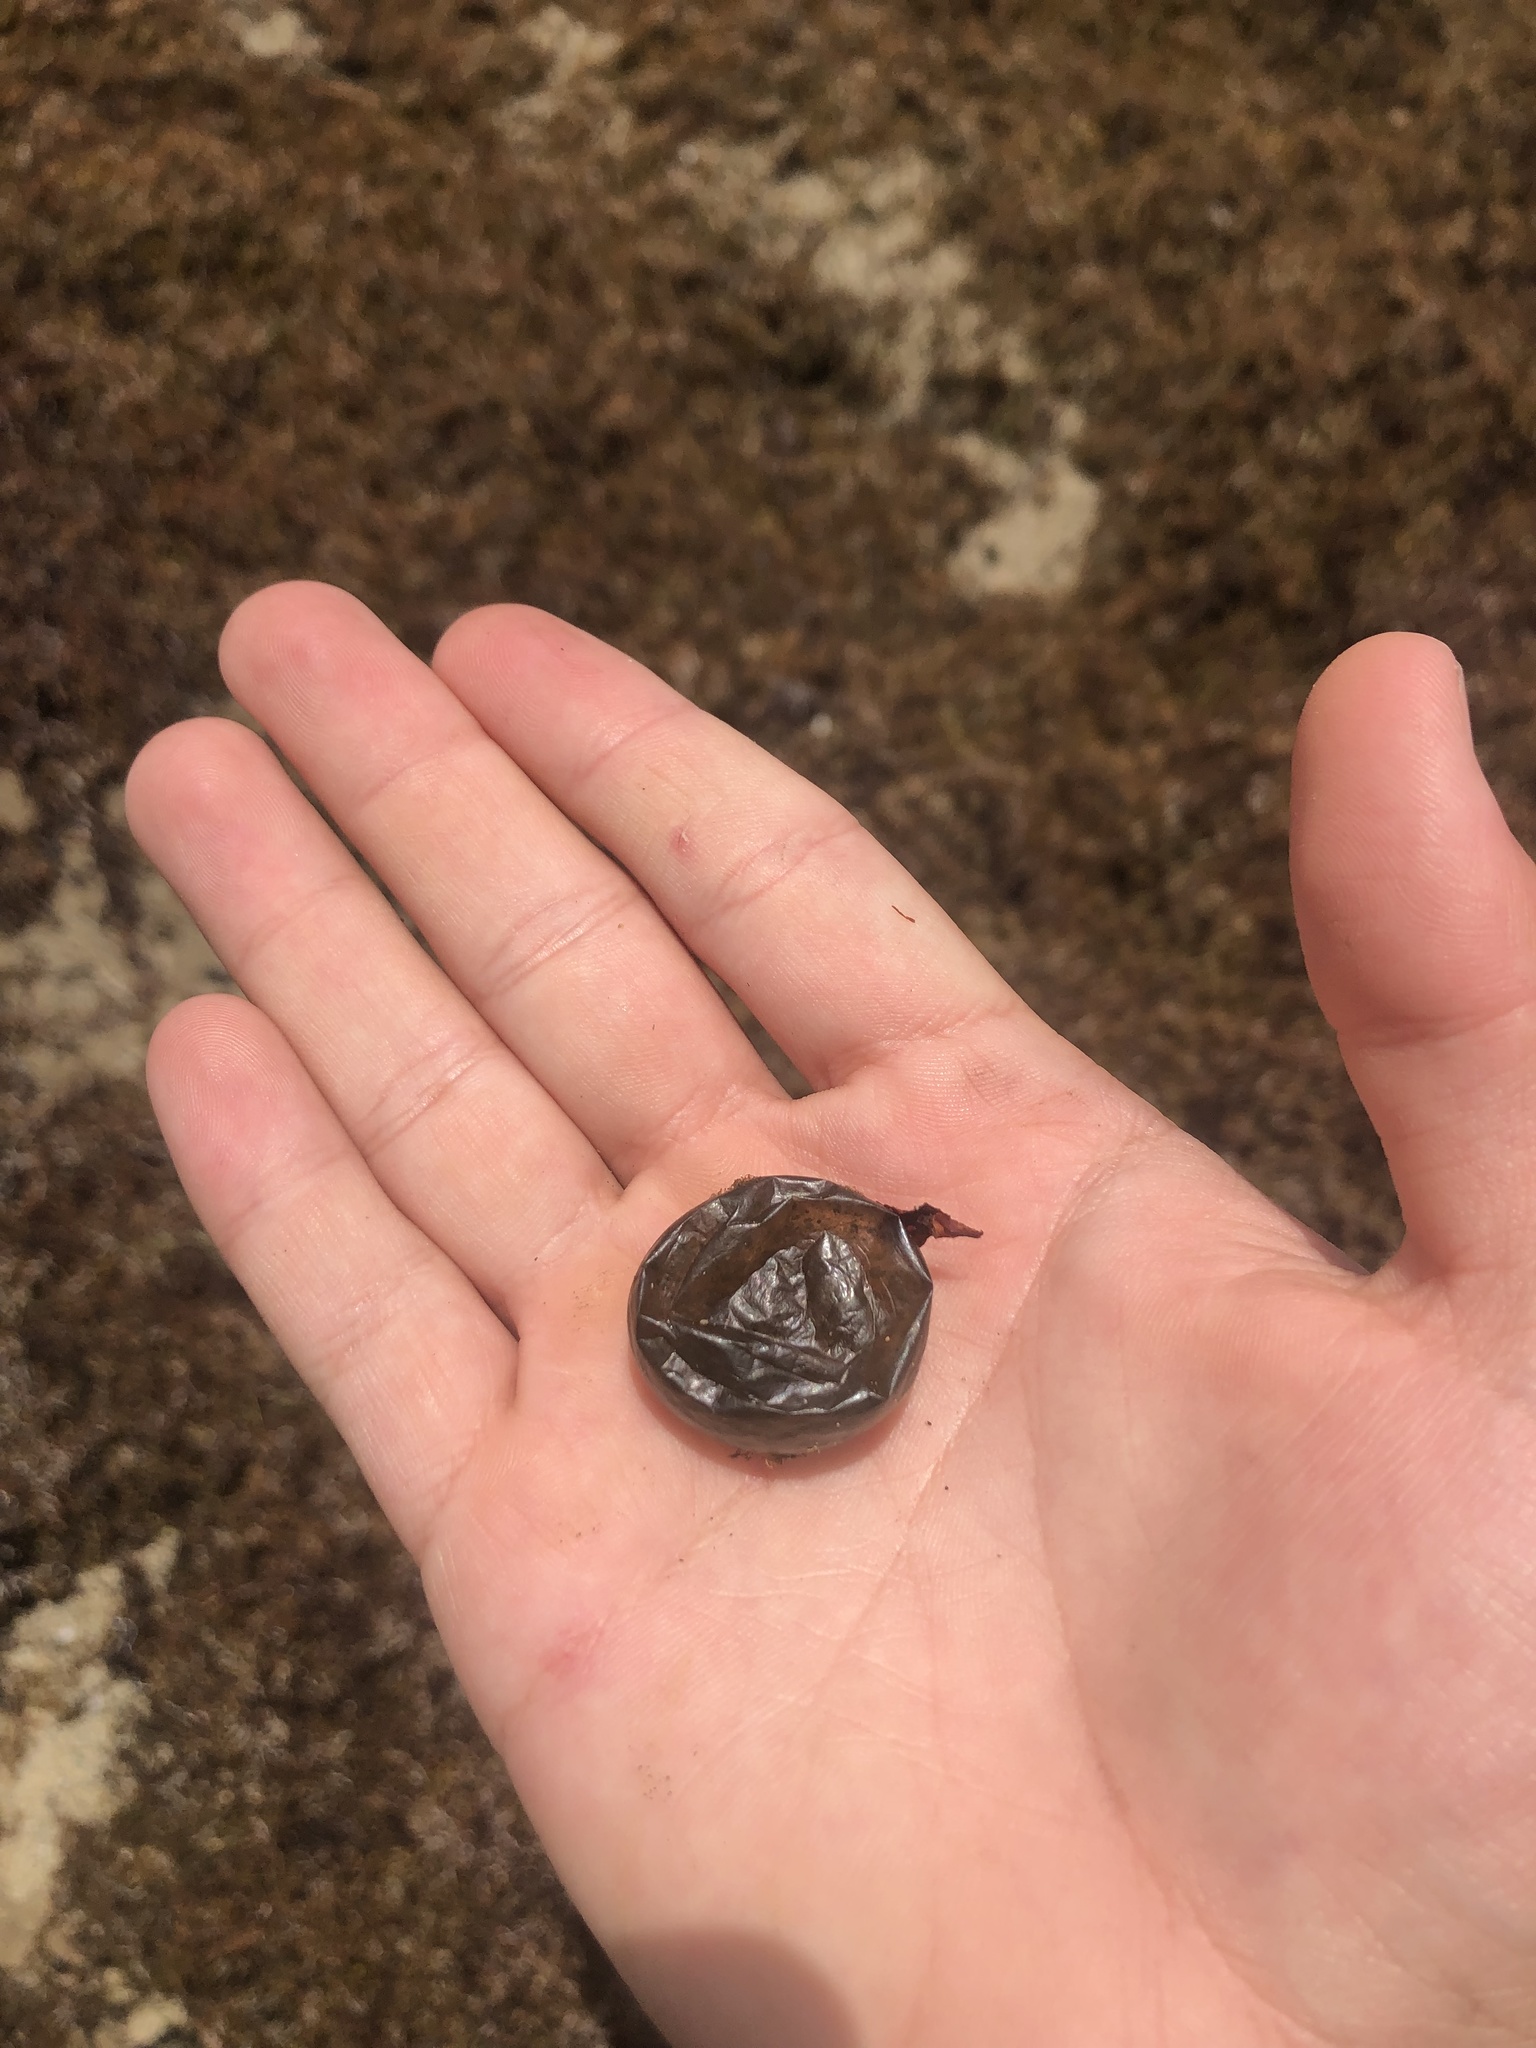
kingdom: Plantae
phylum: Chlorophyta
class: Ulvophyceae
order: Siphonocladales
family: Valoniaceae
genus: Valonia
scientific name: Valonia ventricosa
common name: Sea pearl
